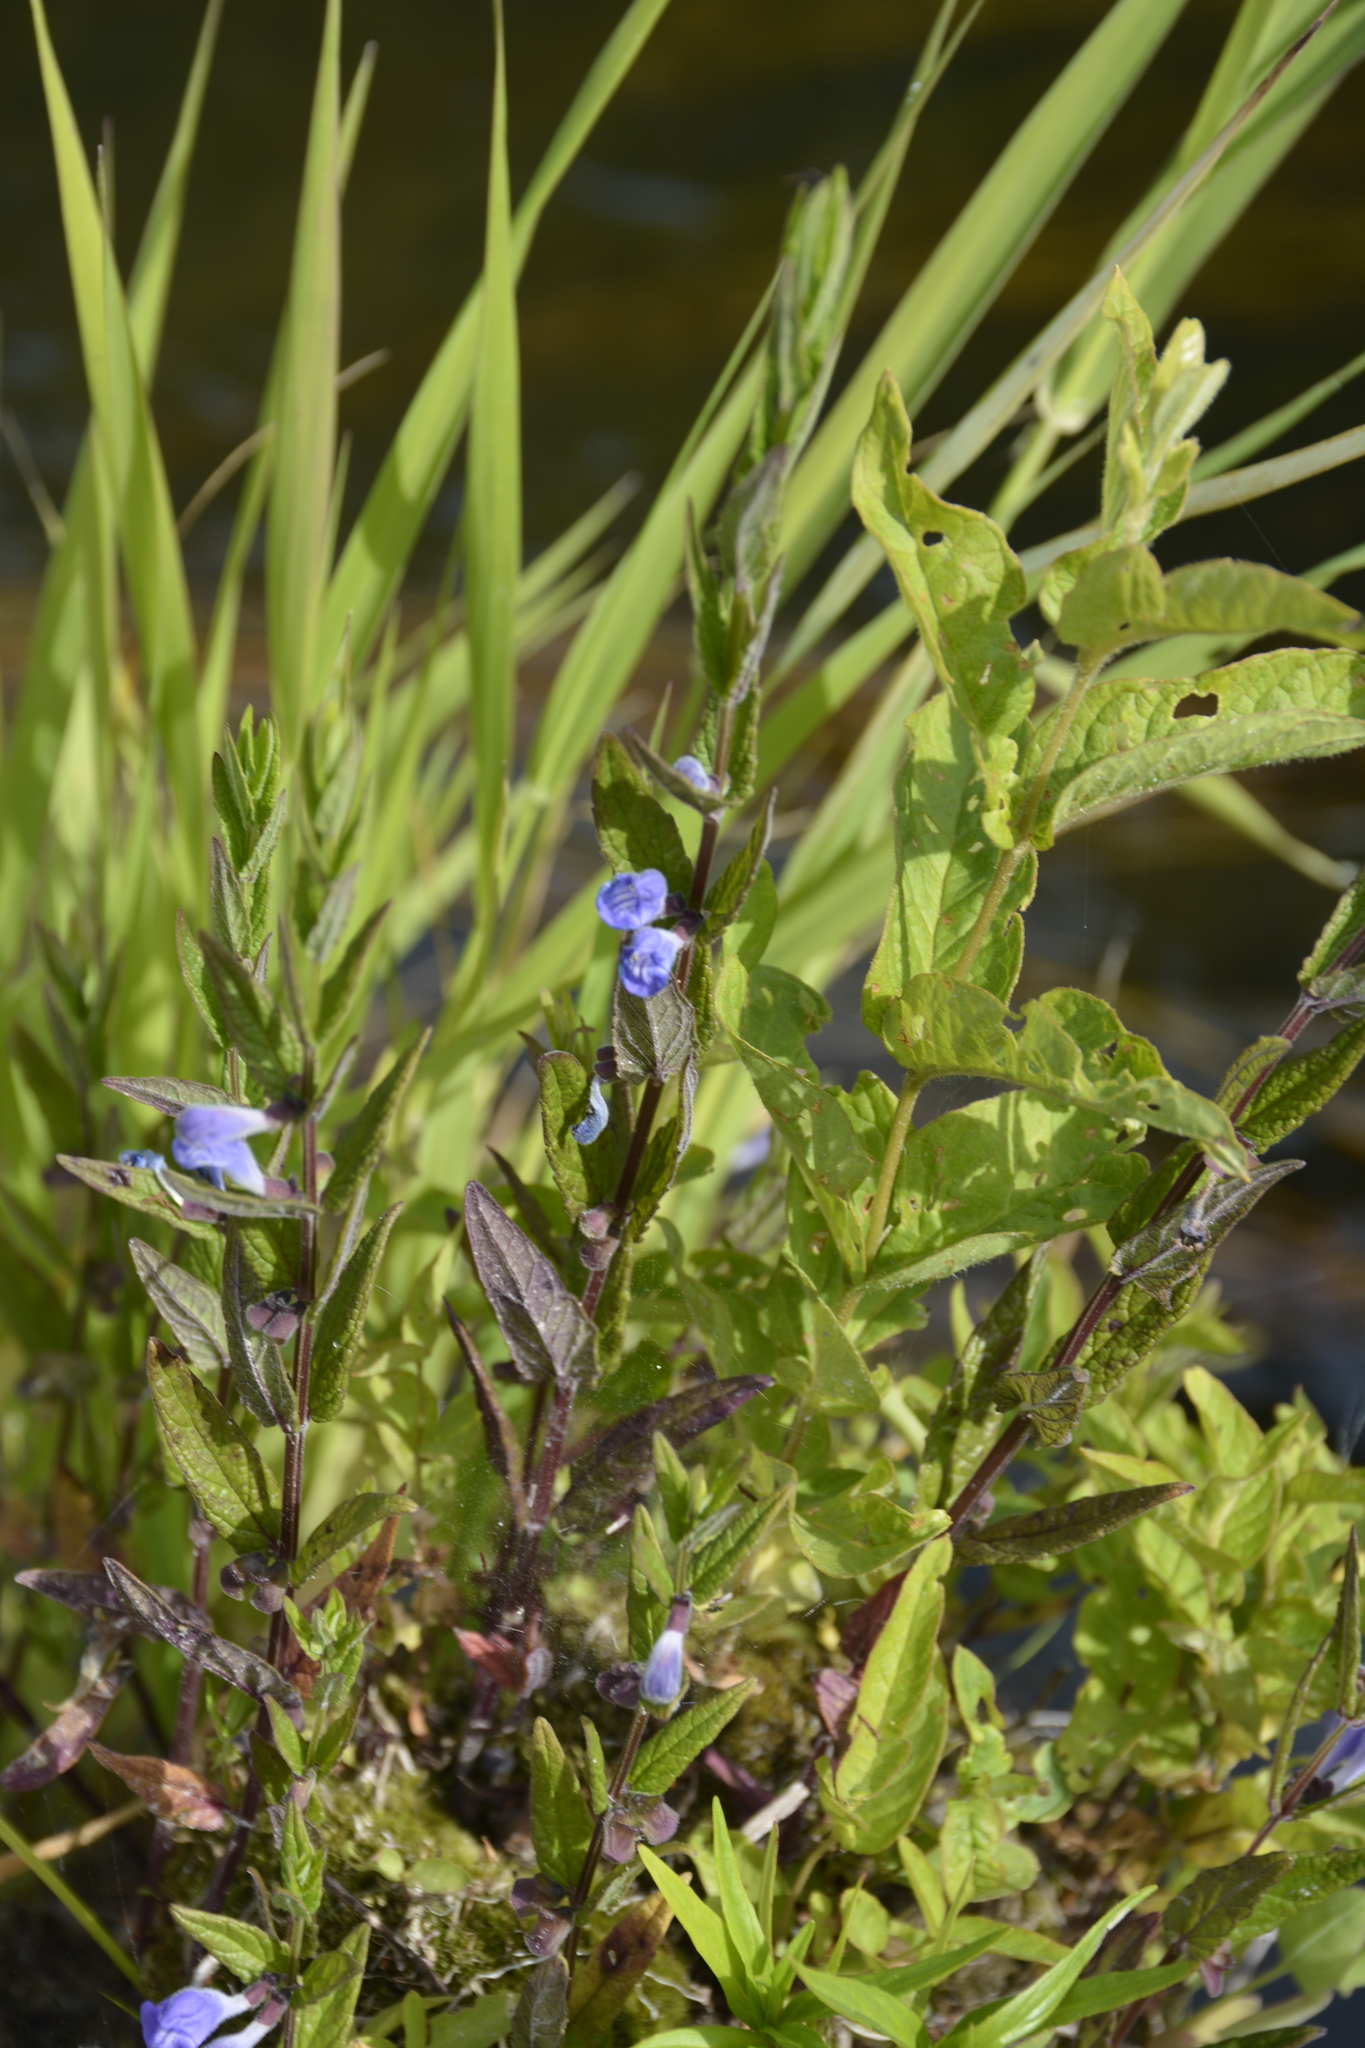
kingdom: Plantae
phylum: Tracheophyta
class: Magnoliopsida
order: Lamiales
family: Lamiaceae
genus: Scutellaria
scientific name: Scutellaria galericulata
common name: Skullcap
